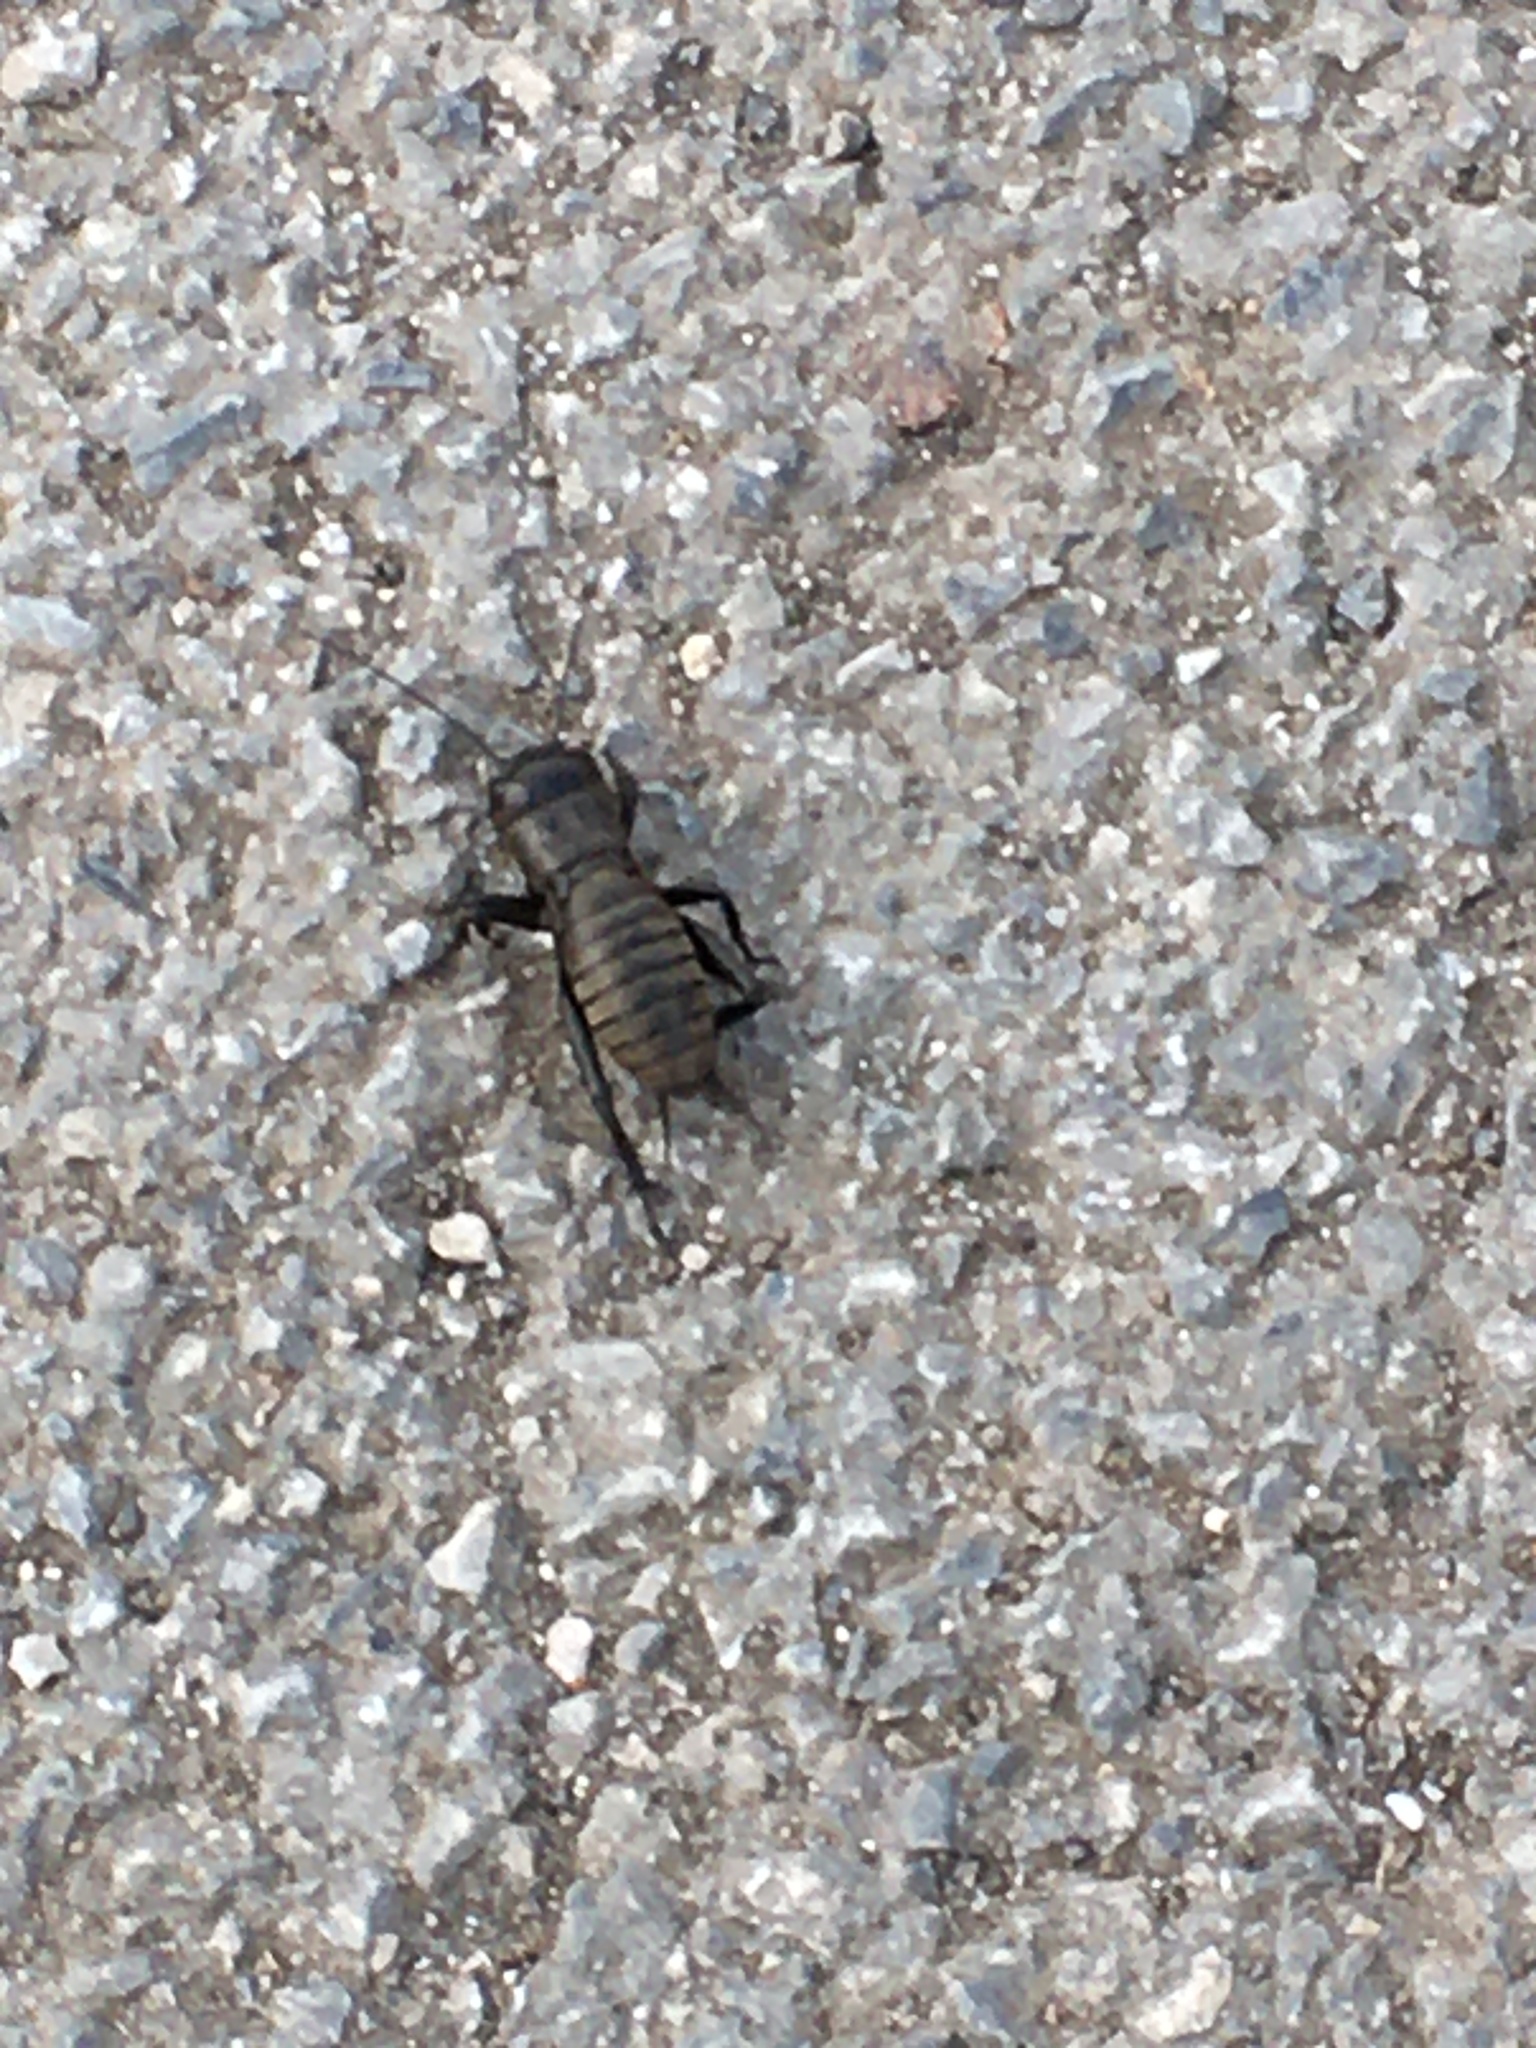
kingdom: Animalia
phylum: Arthropoda
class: Insecta
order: Orthoptera
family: Gryllidae
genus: Gryllus
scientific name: Gryllus campestris
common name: Field cricket
